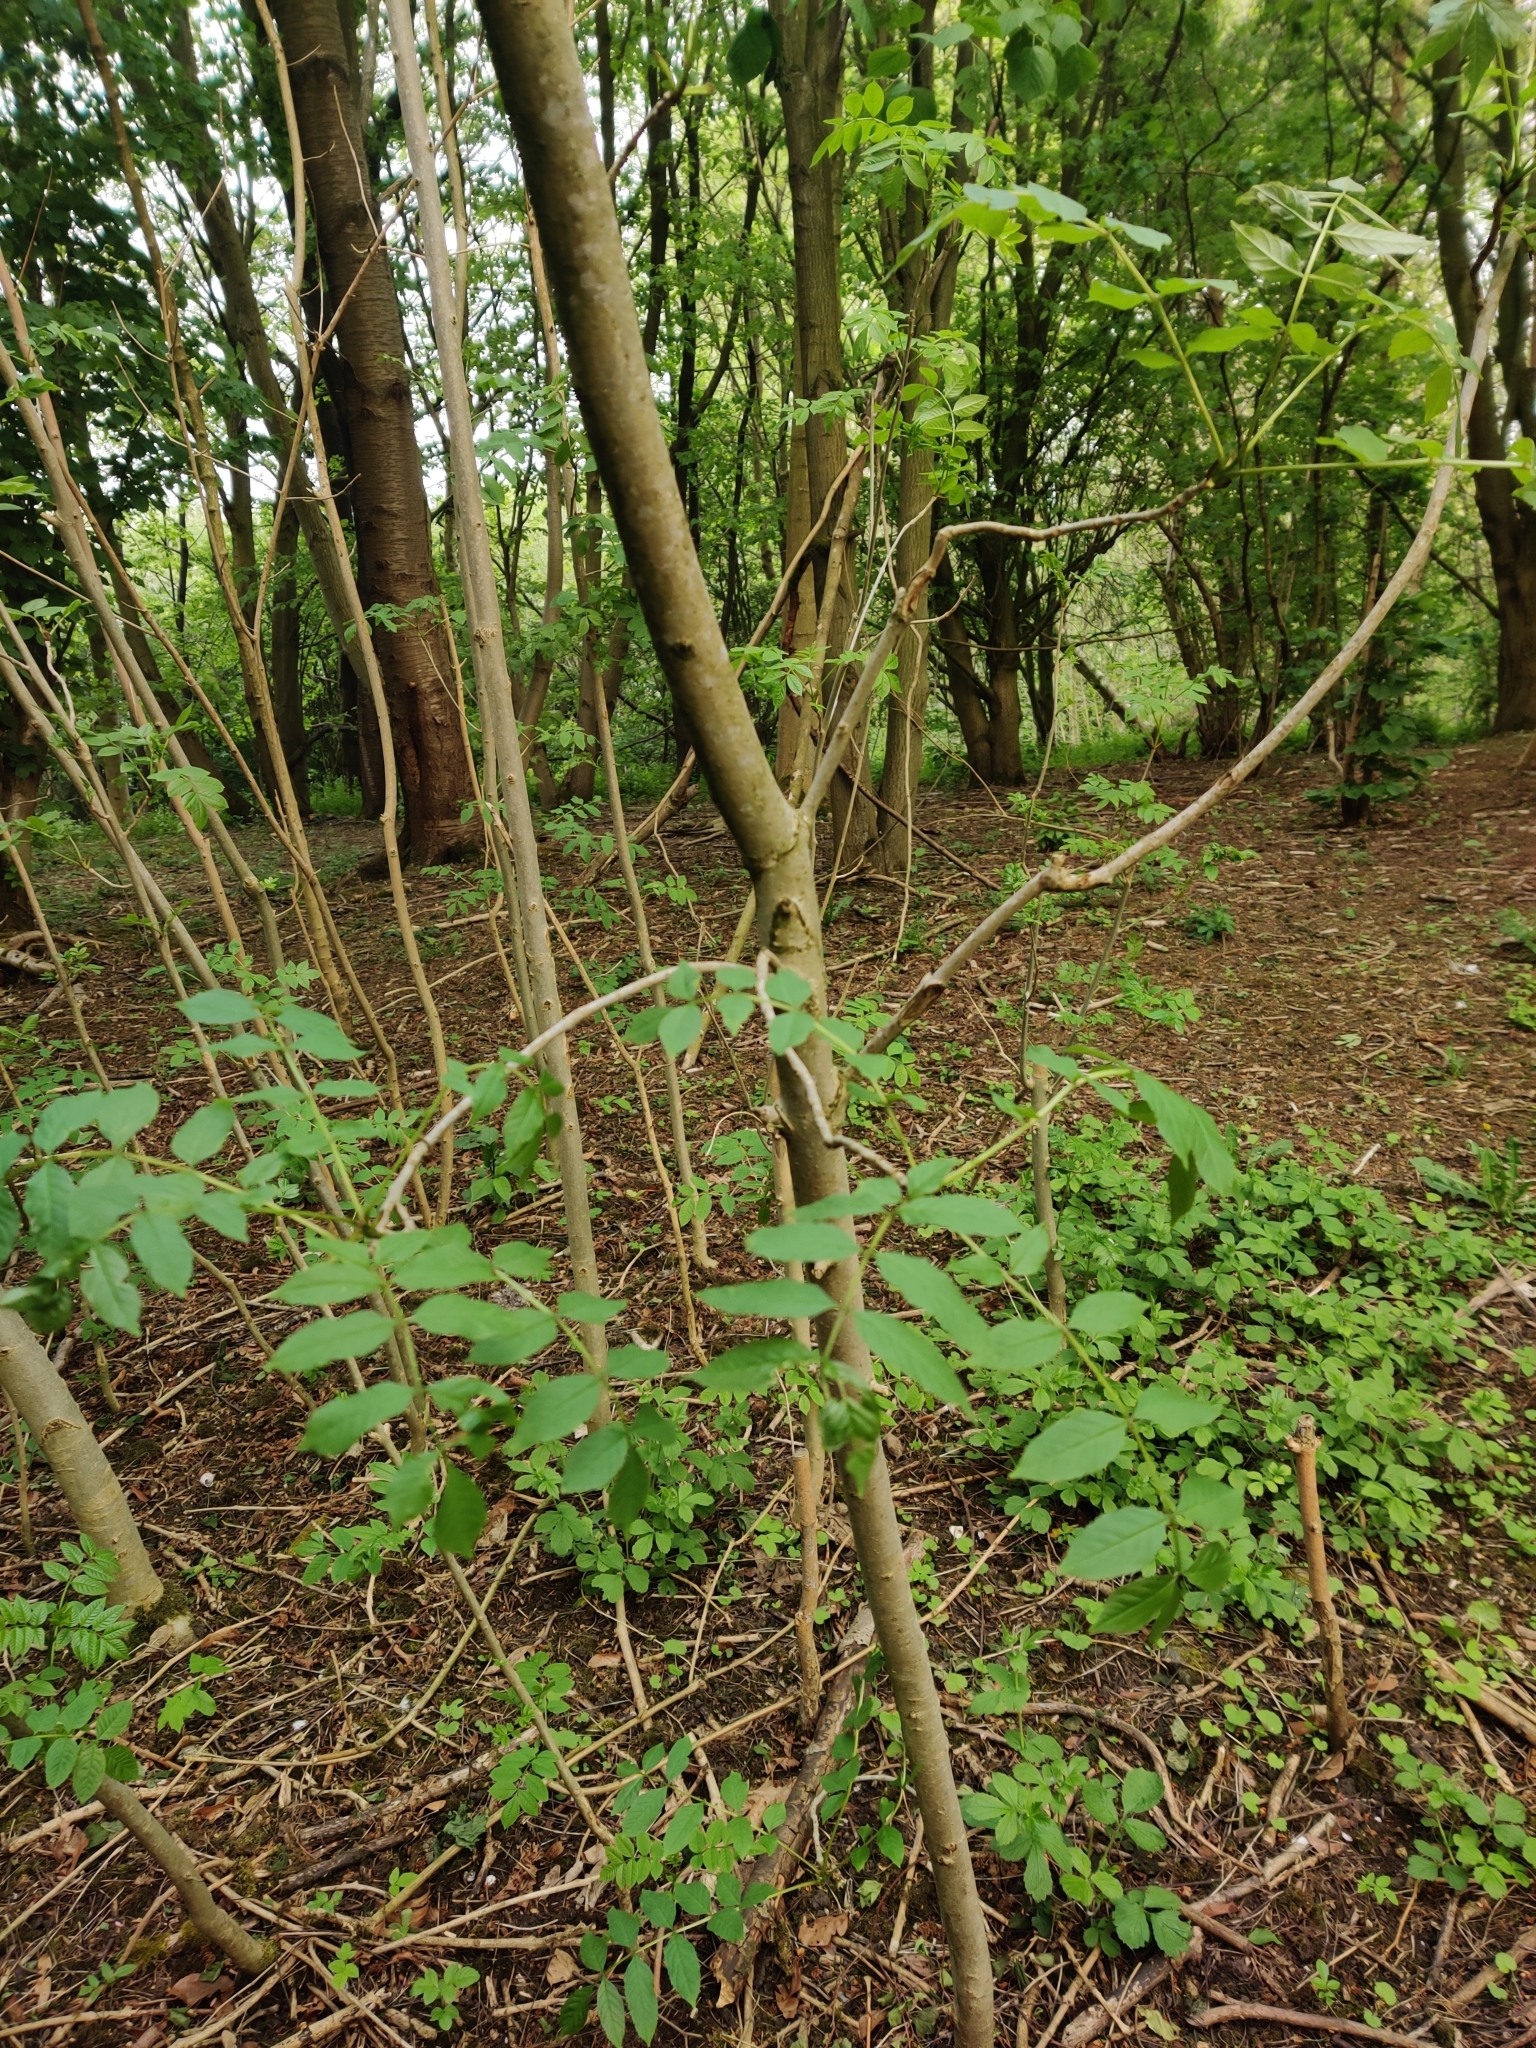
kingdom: Plantae
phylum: Tracheophyta
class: Magnoliopsida
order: Lamiales
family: Oleaceae
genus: Fraxinus
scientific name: Fraxinus excelsior
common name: European ash
